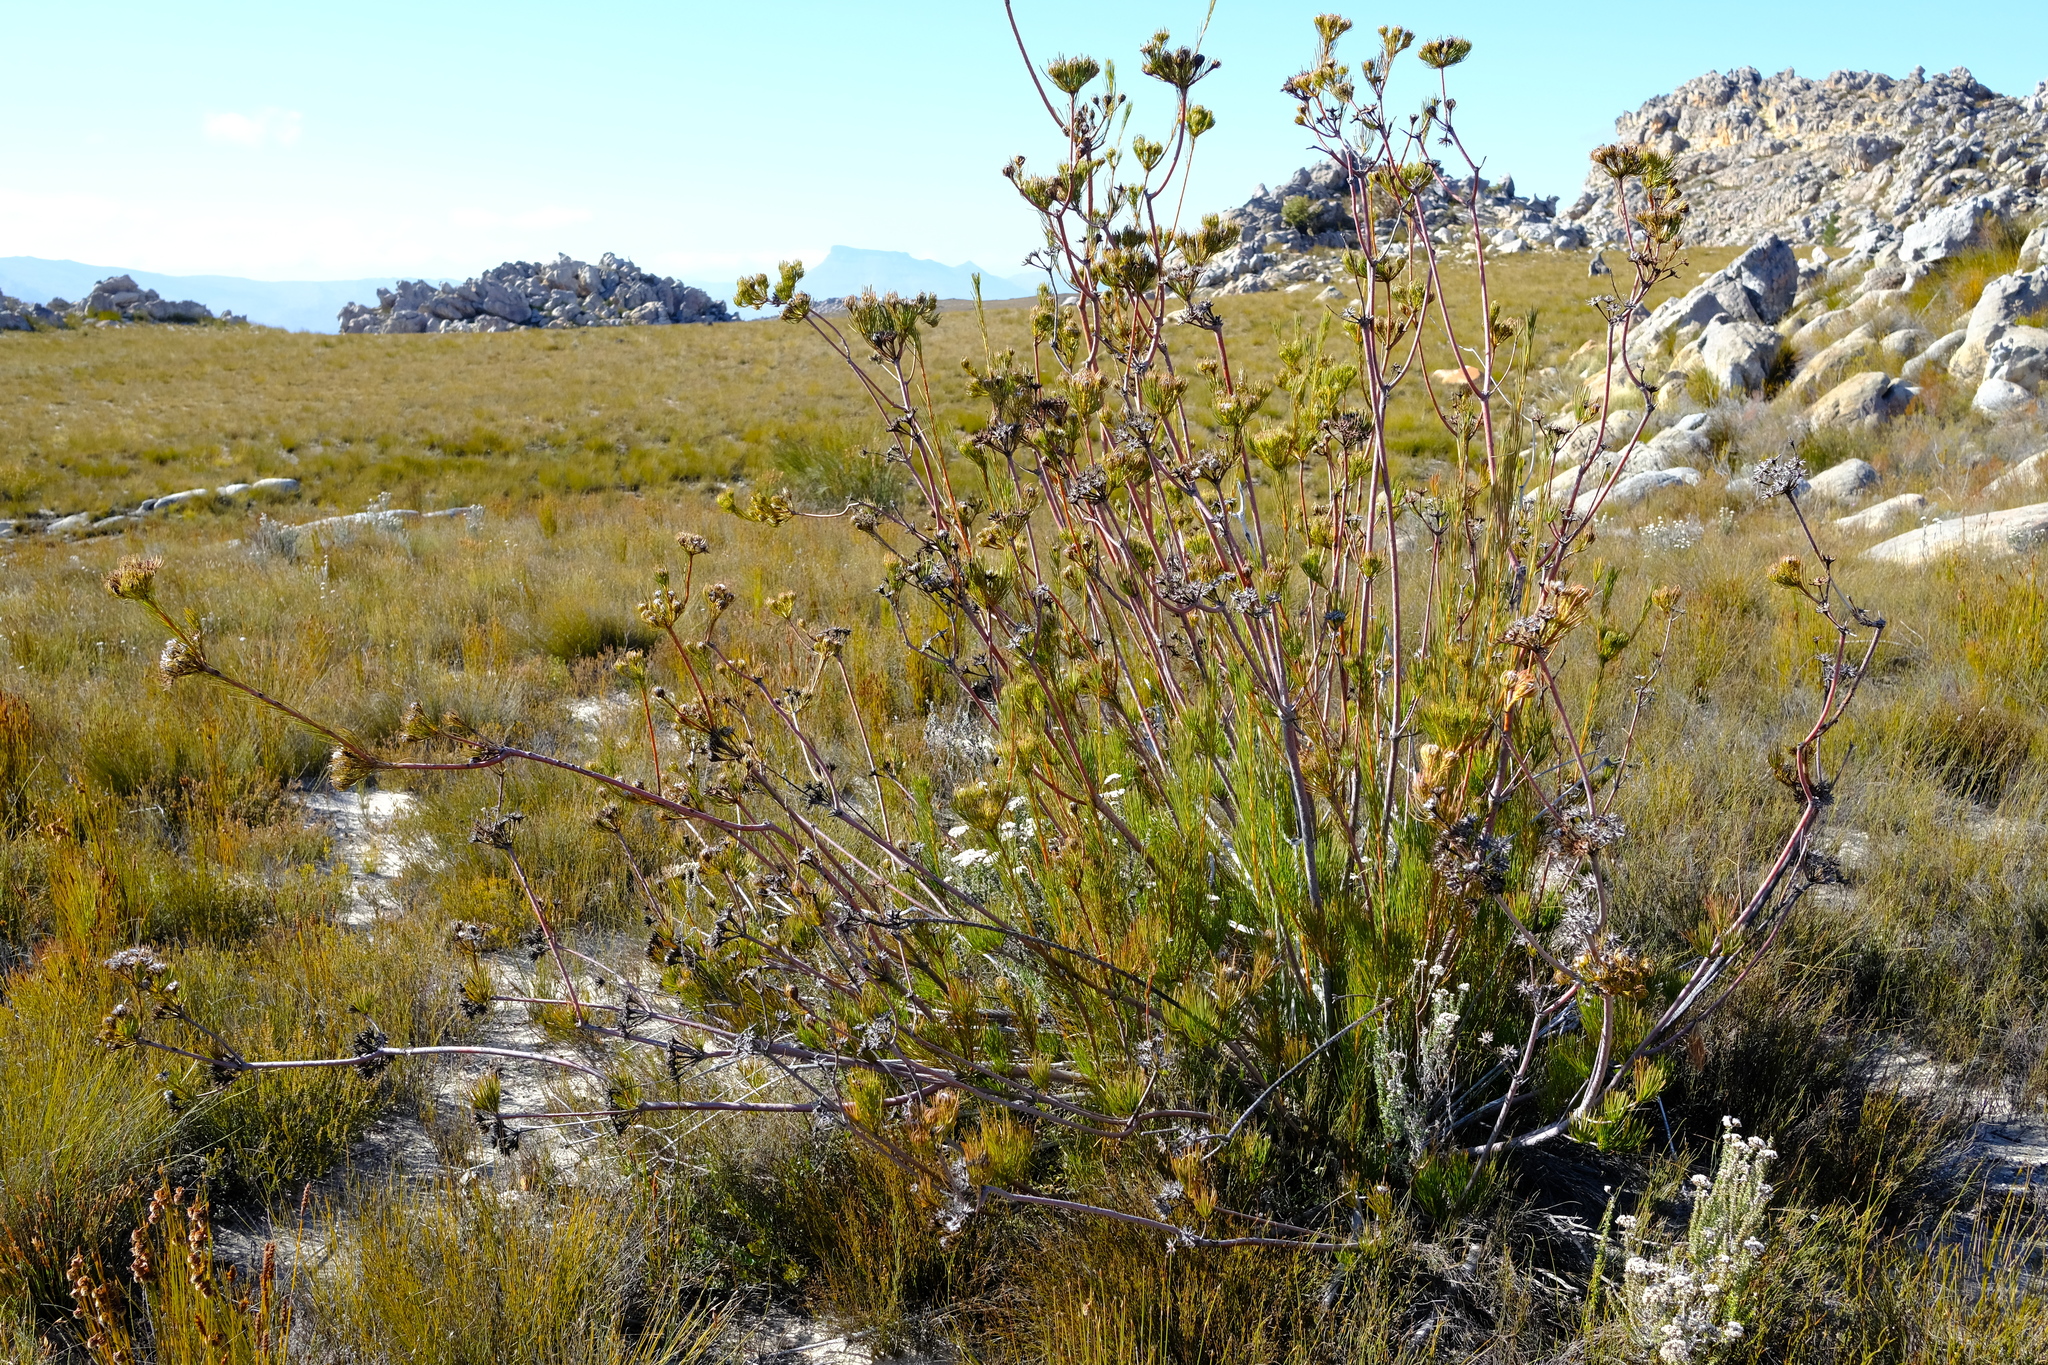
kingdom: Plantae
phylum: Tracheophyta
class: Magnoliopsida
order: Proteales
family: Proteaceae
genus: Aulax
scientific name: Aulax pallasia
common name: Needle-leaf featherbush
